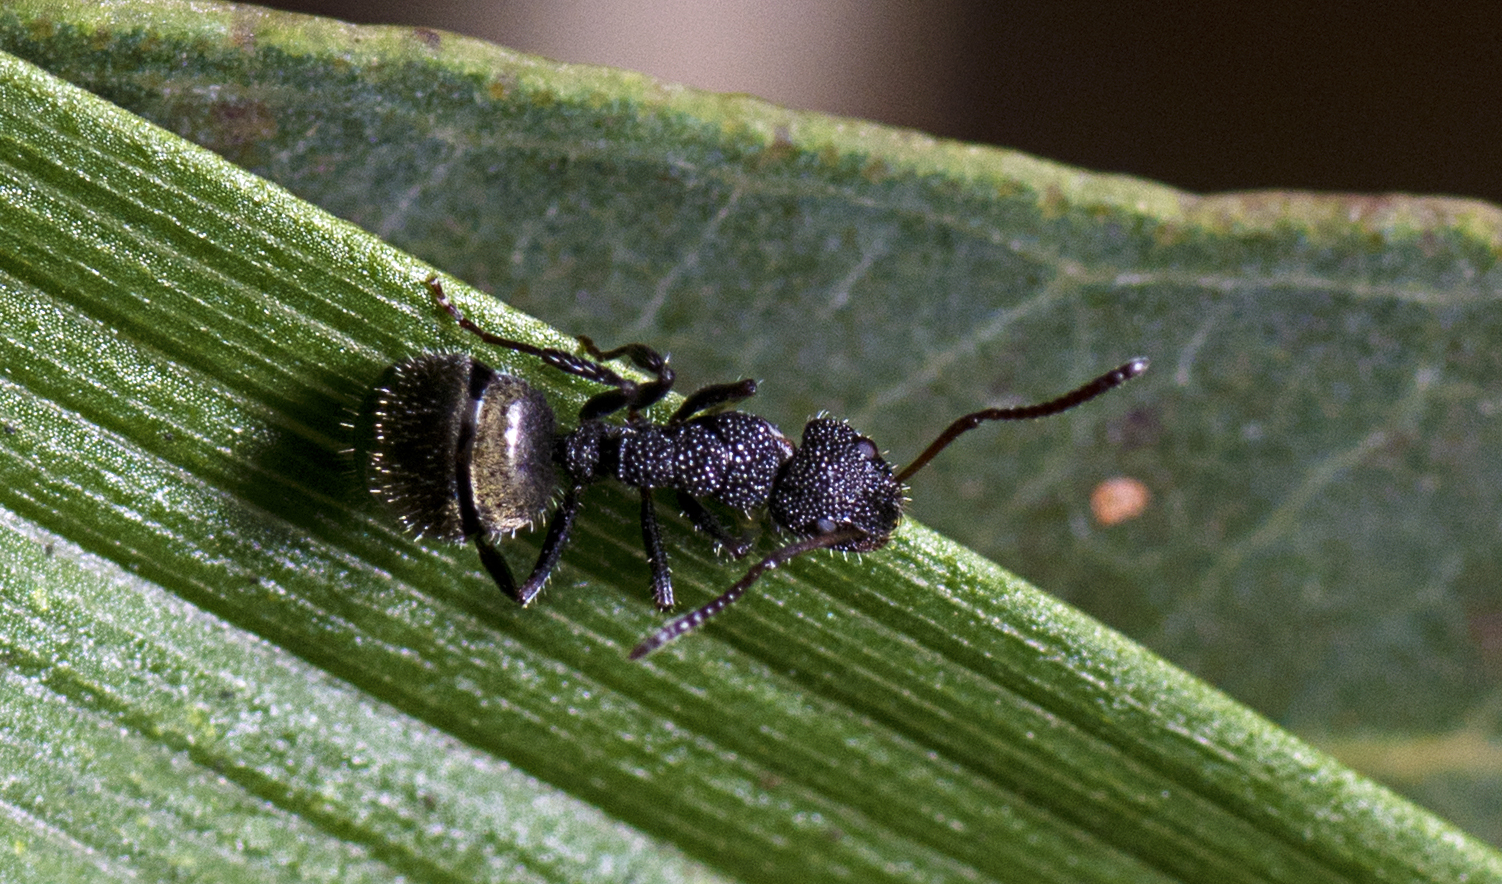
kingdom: Animalia
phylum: Arthropoda
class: Insecta
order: Hymenoptera
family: Formicidae
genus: Dolichoderus
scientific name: Dolichoderus scrobiculatus
